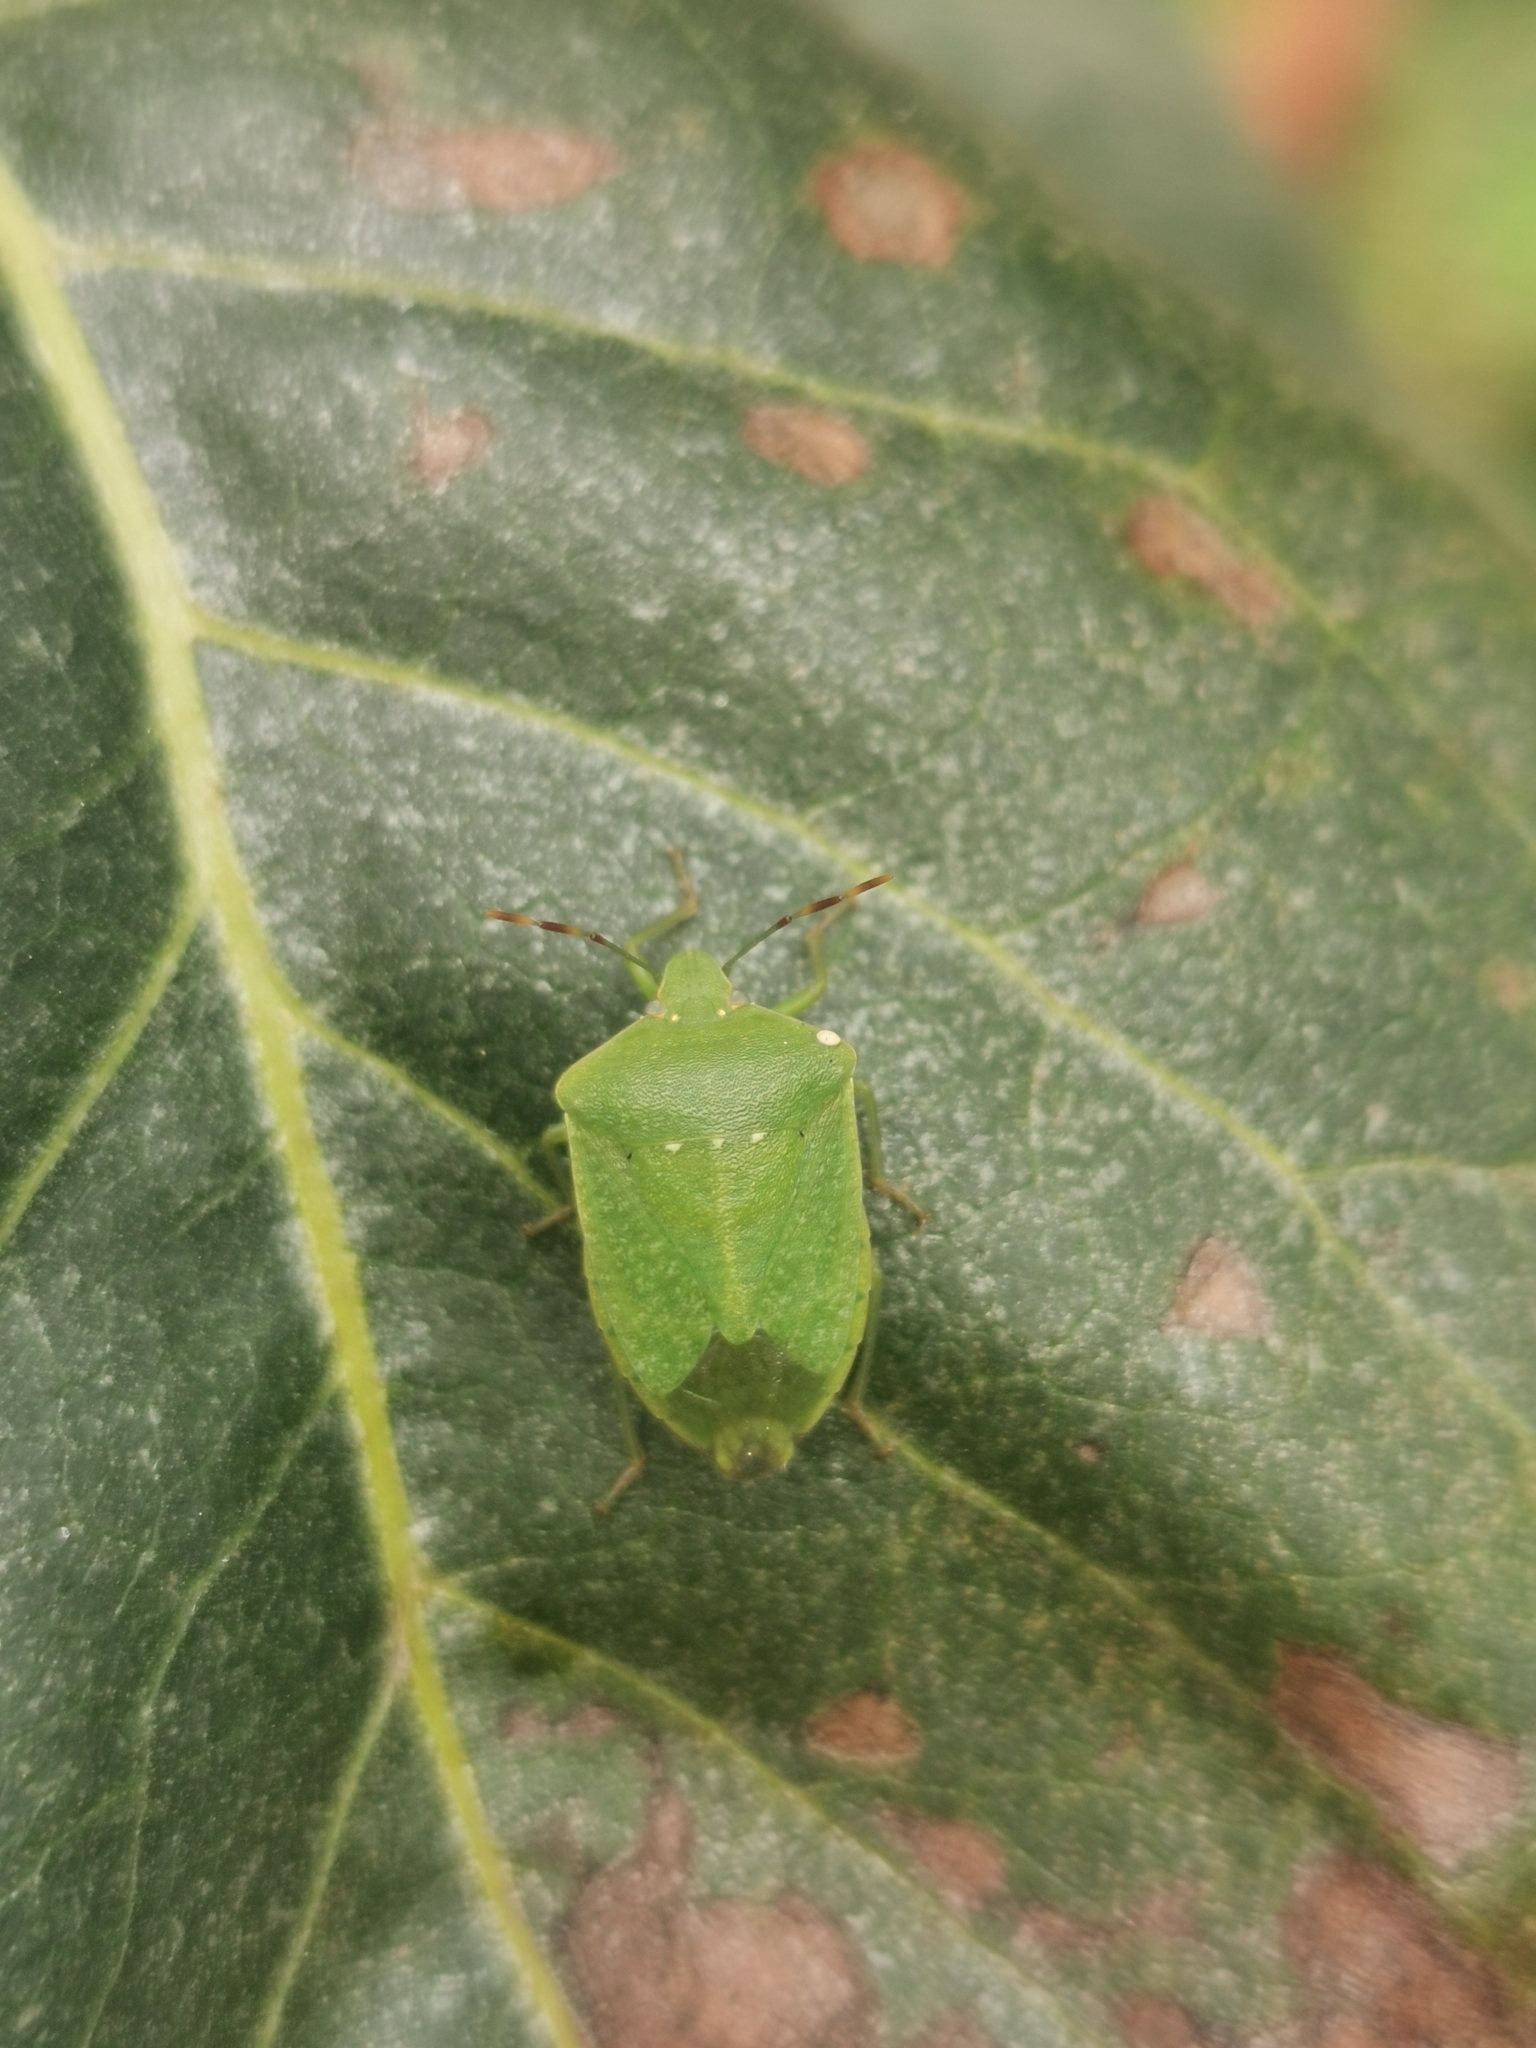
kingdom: Animalia
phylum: Arthropoda
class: Insecta
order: Hemiptera
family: Pentatomidae
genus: Nezara
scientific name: Nezara viridula
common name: Southern green stink bug
